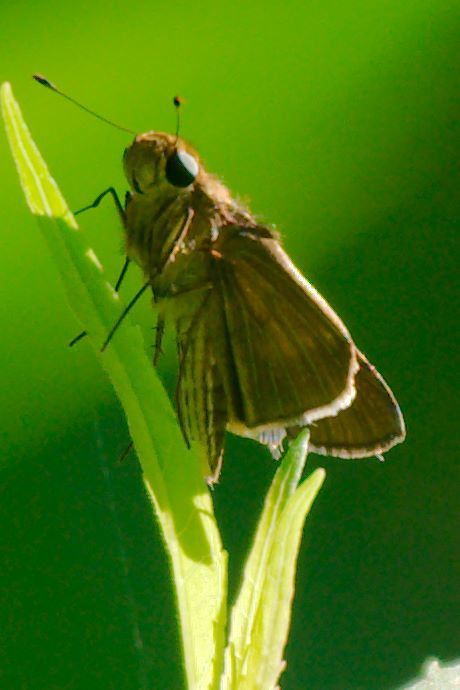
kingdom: Animalia
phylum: Arthropoda
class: Insecta
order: Lepidoptera
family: Hesperiidae
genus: Panoquina
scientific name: Panoquina ocola
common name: Ocola skipper
